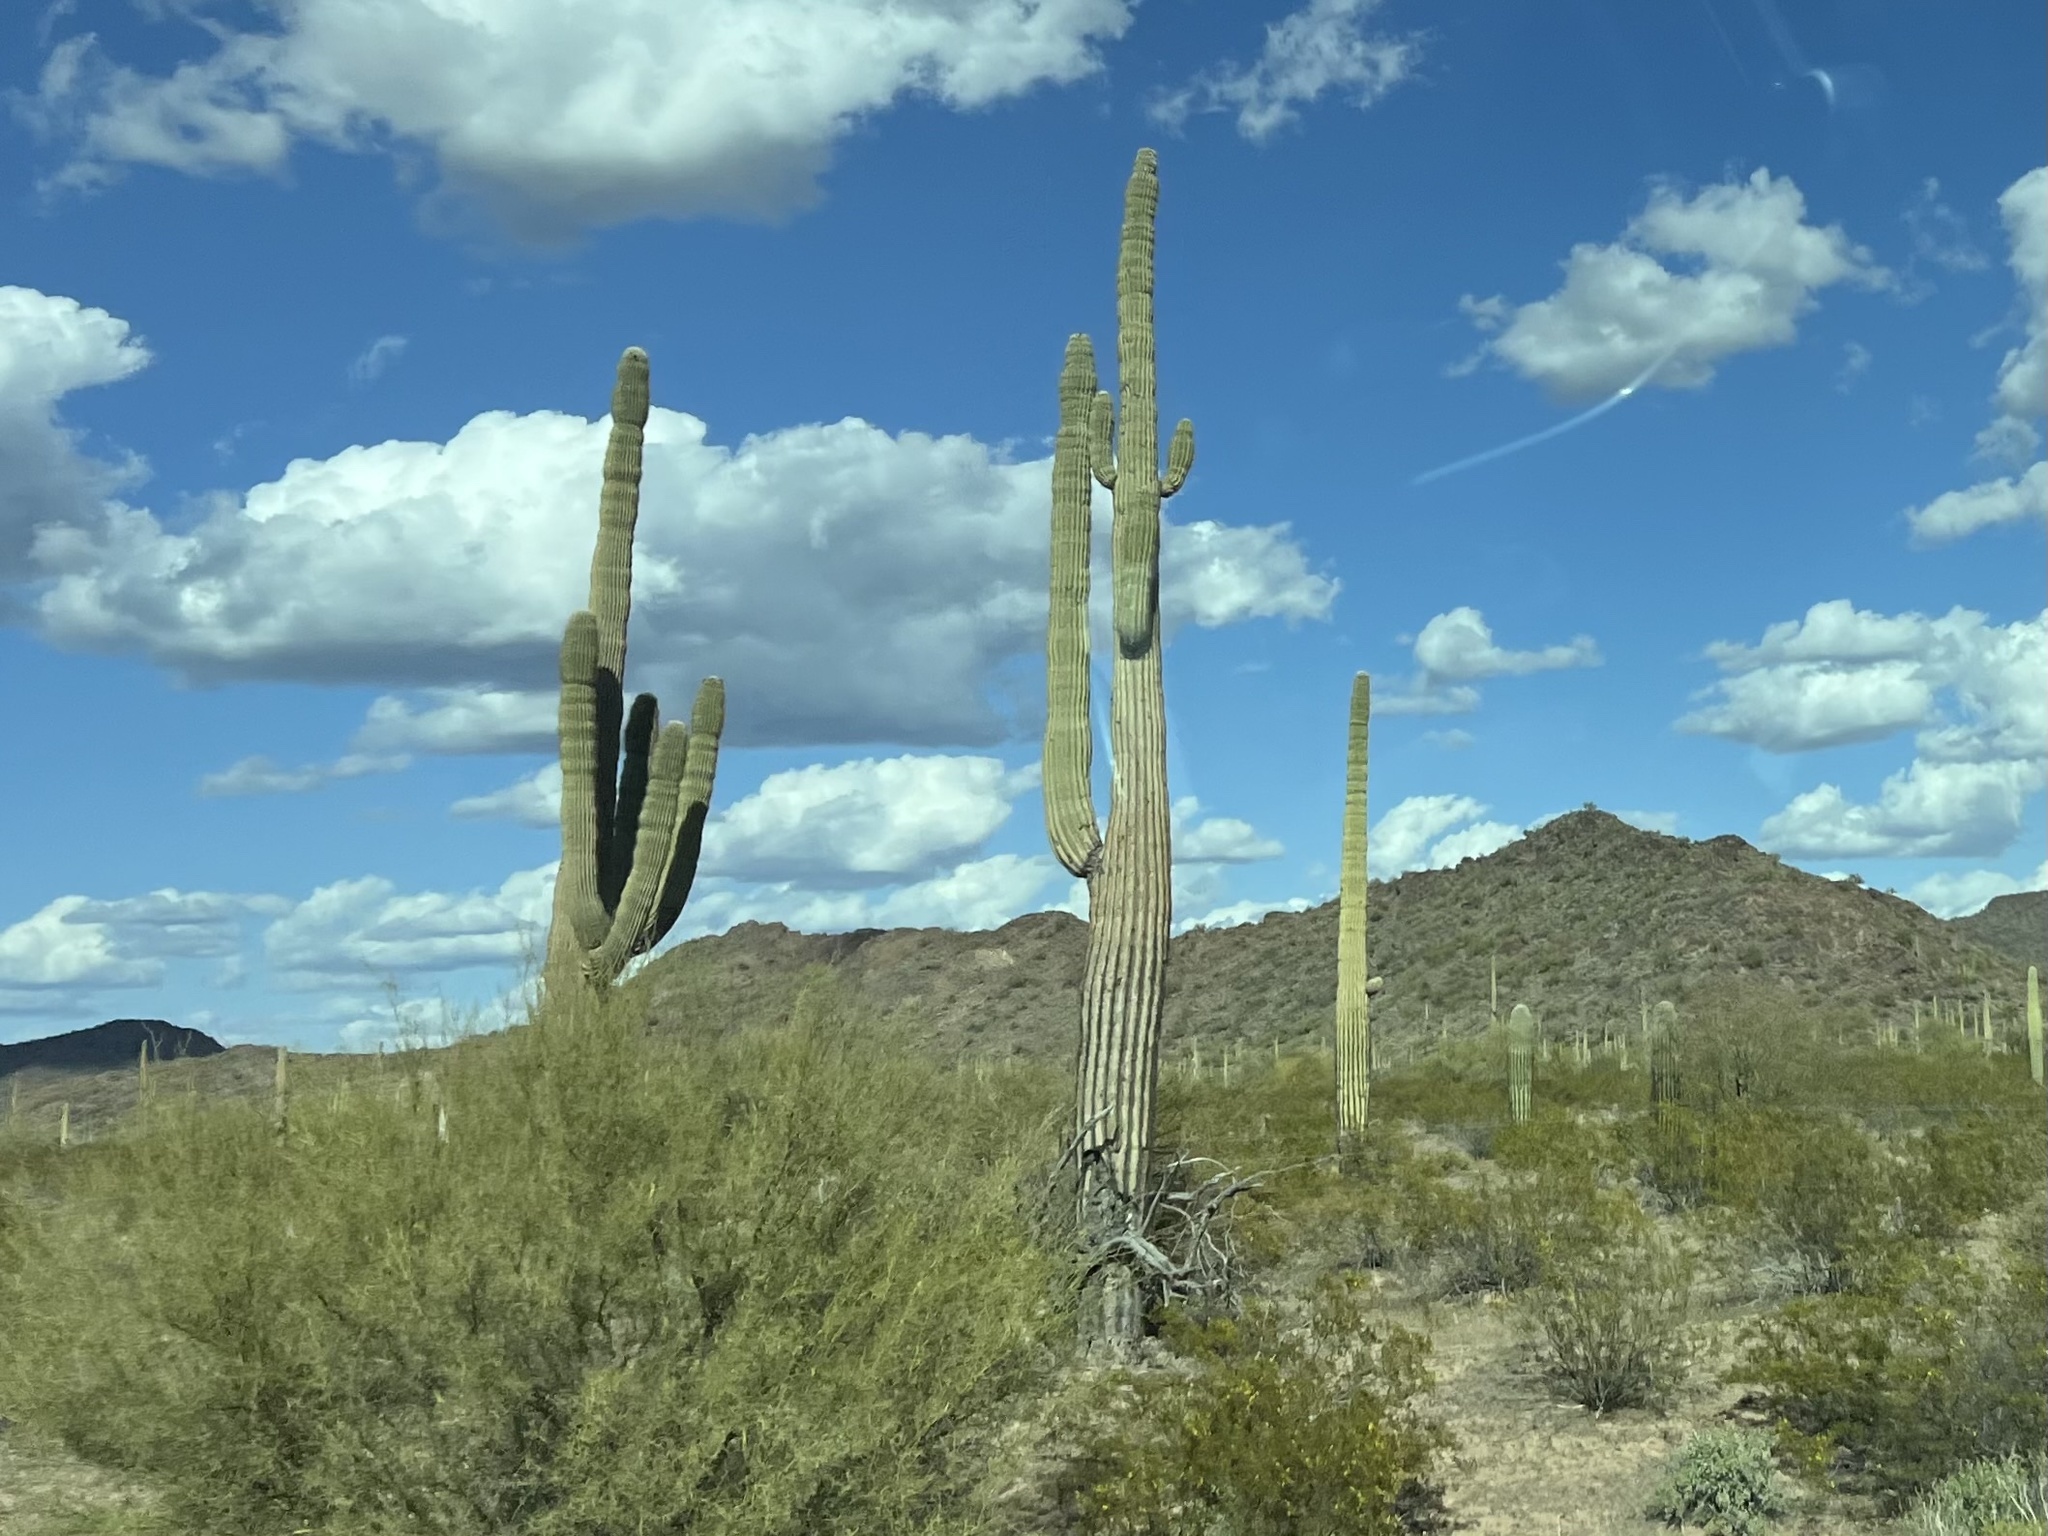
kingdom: Plantae
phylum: Tracheophyta
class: Magnoliopsida
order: Caryophyllales
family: Cactaceae
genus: Carnegiea
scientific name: Carnegiea gigantea
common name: Saguaro
